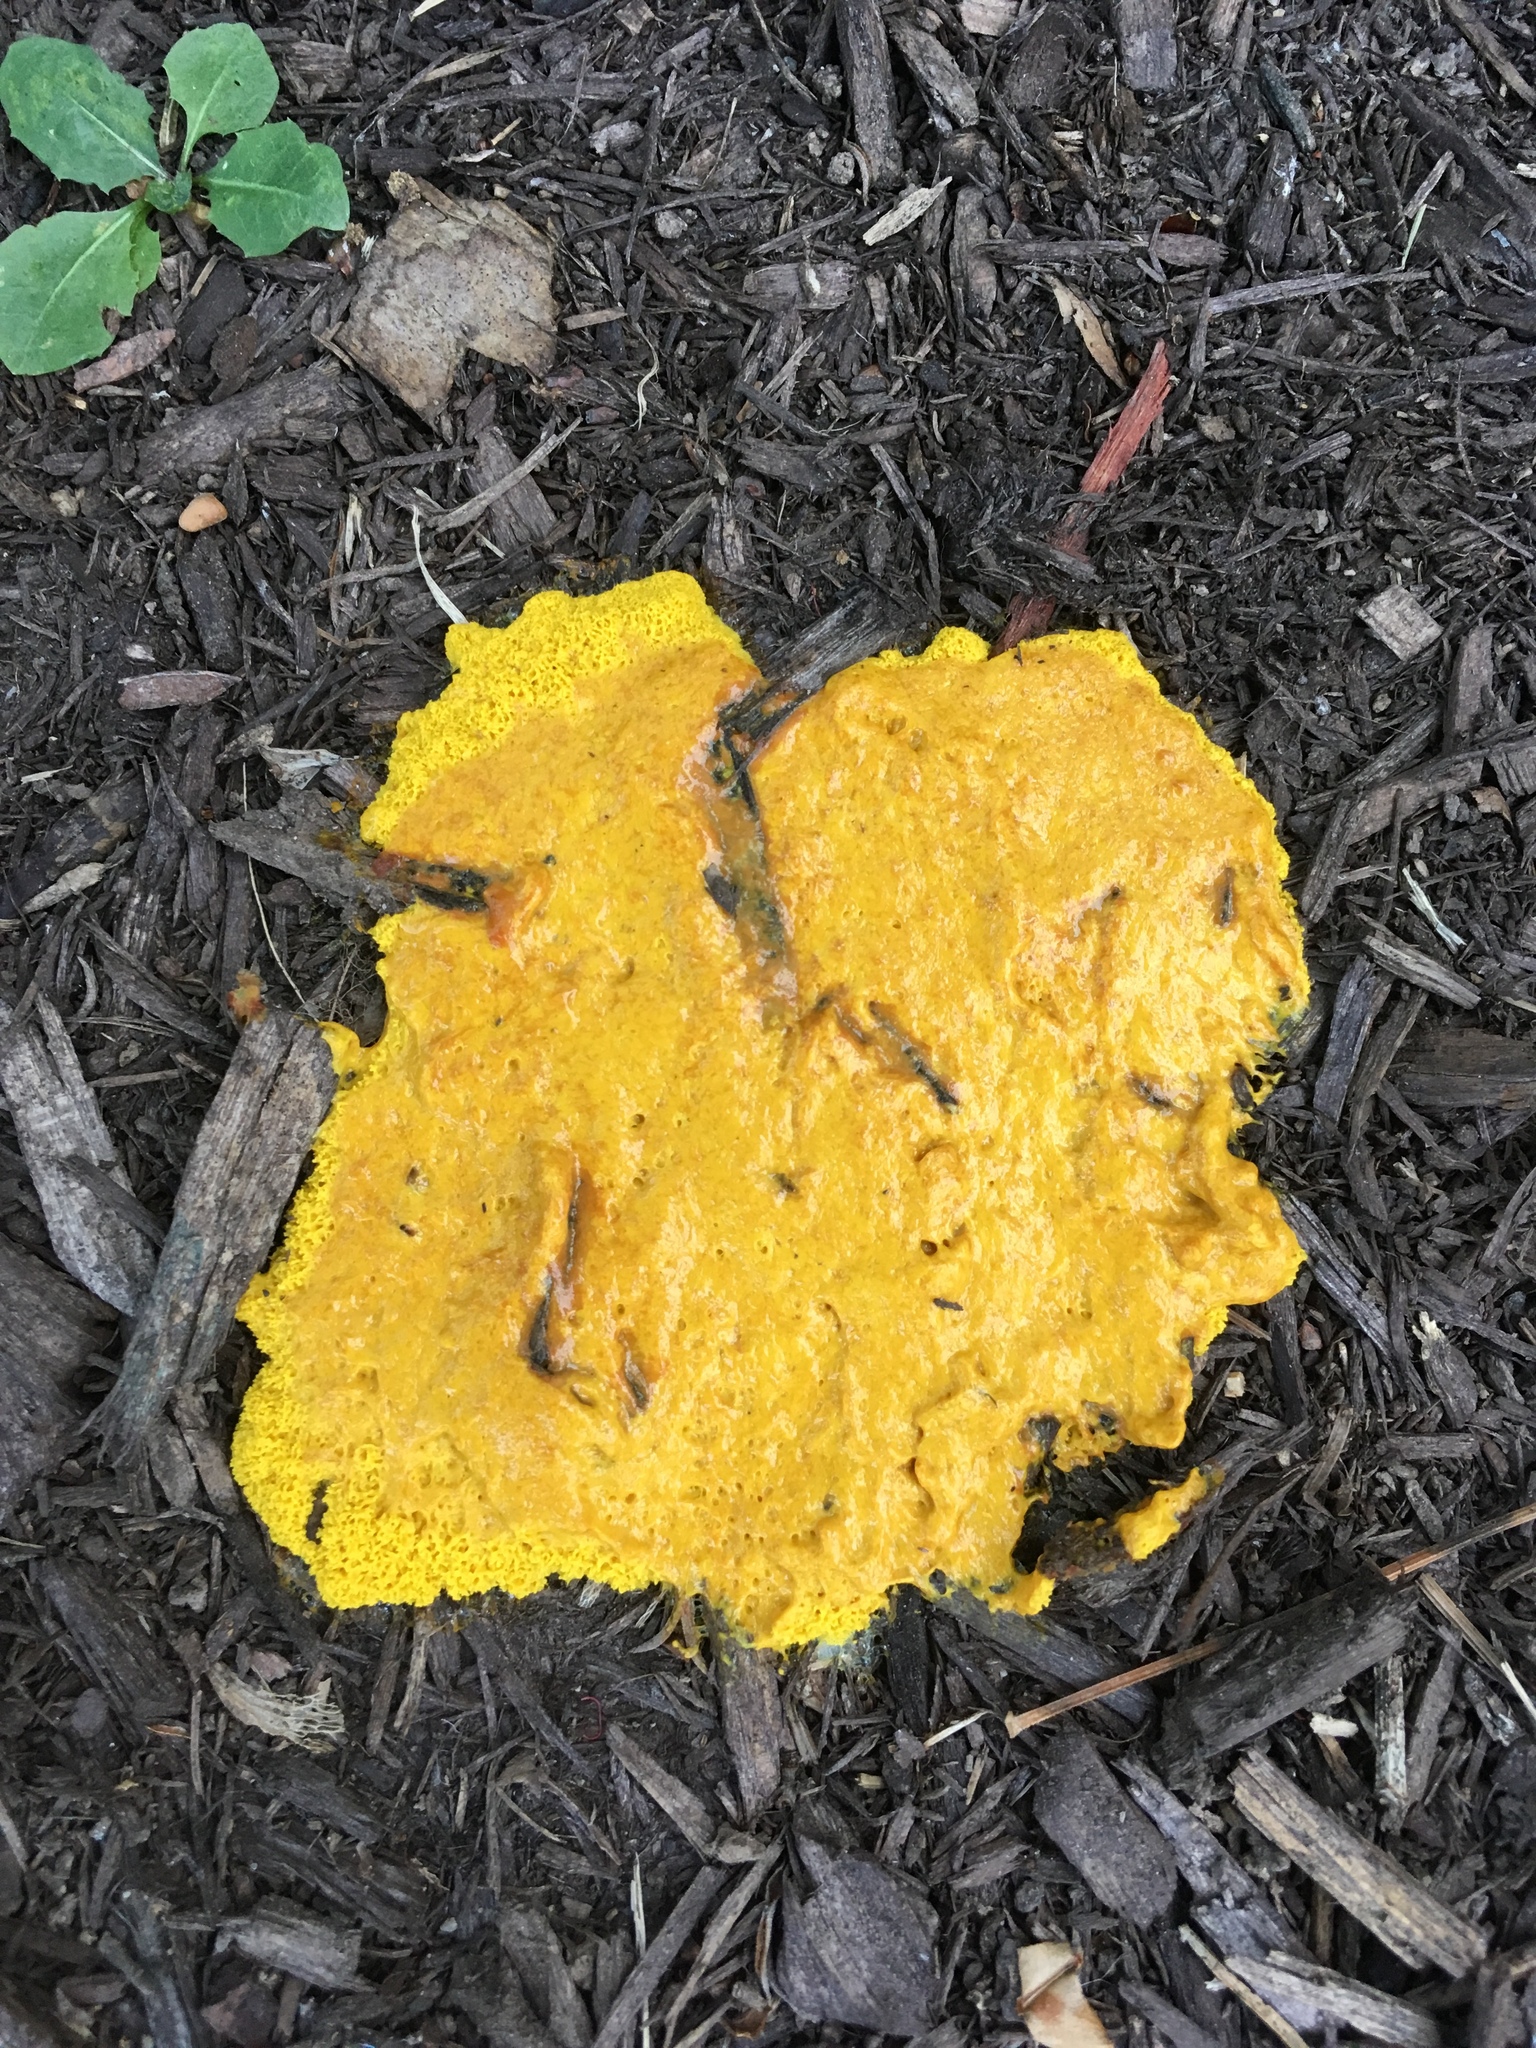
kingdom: Protozoa
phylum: Mycetozoa
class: Myxomycetes
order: Physarales
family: Physaraceae
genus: Fuligo
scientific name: Fuligo septica
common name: Dog vomit slime mold
